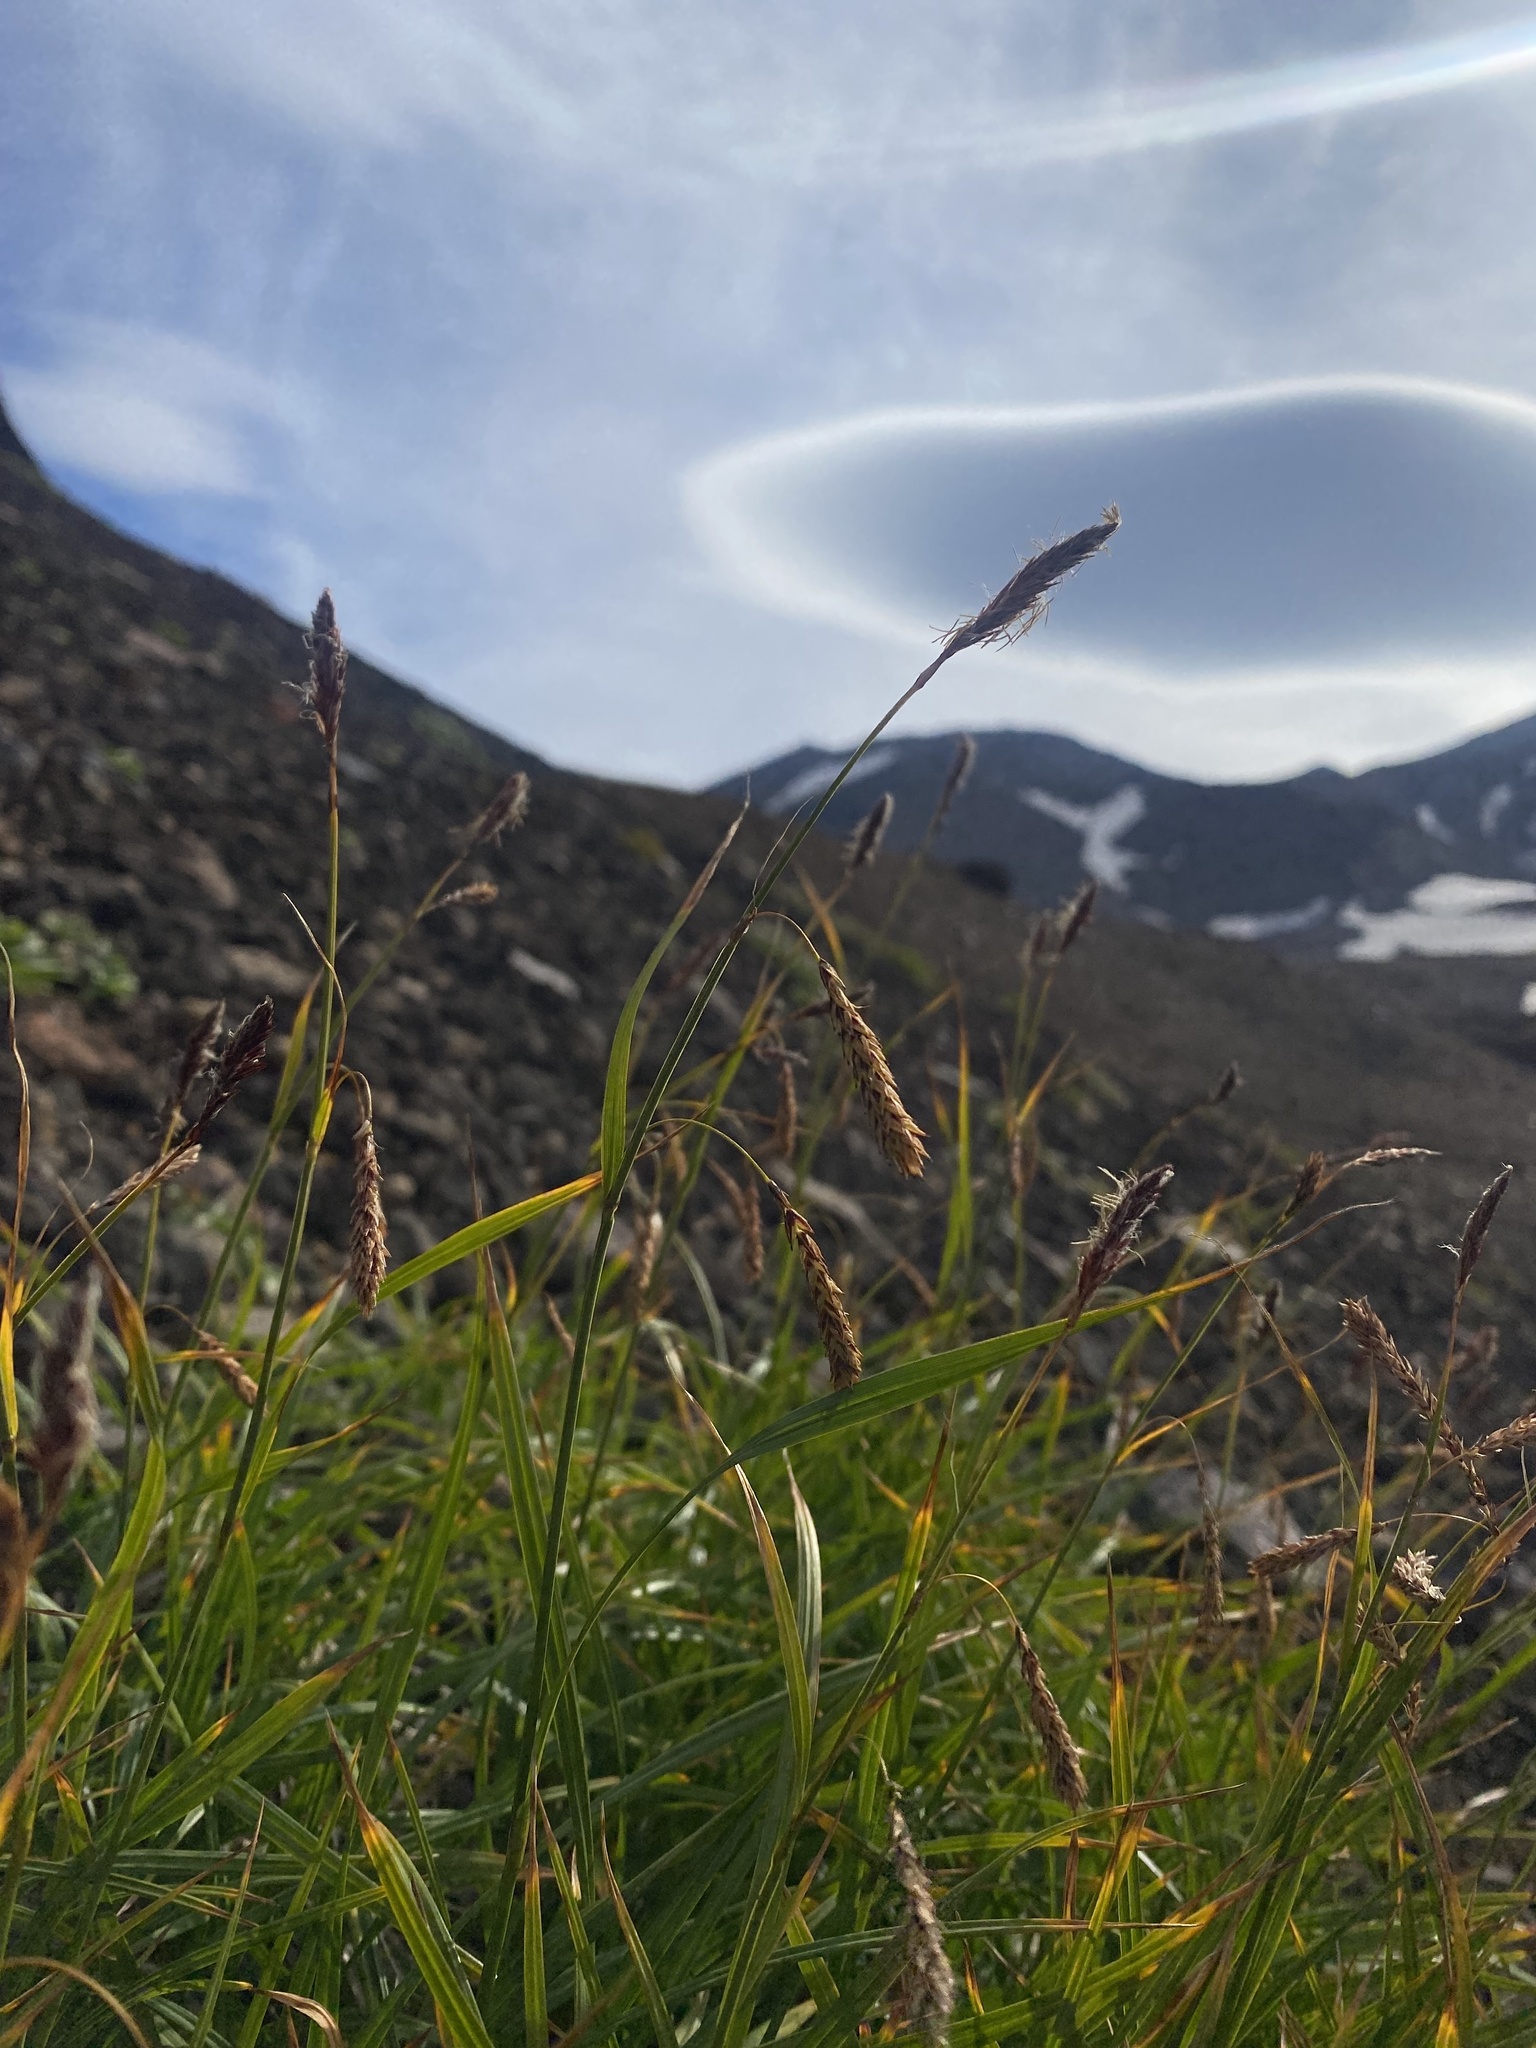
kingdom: Plantae
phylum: Tracheophyta
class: Liliopsida
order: Poales
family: Cyperaceae
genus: Carex
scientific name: Carex scita
